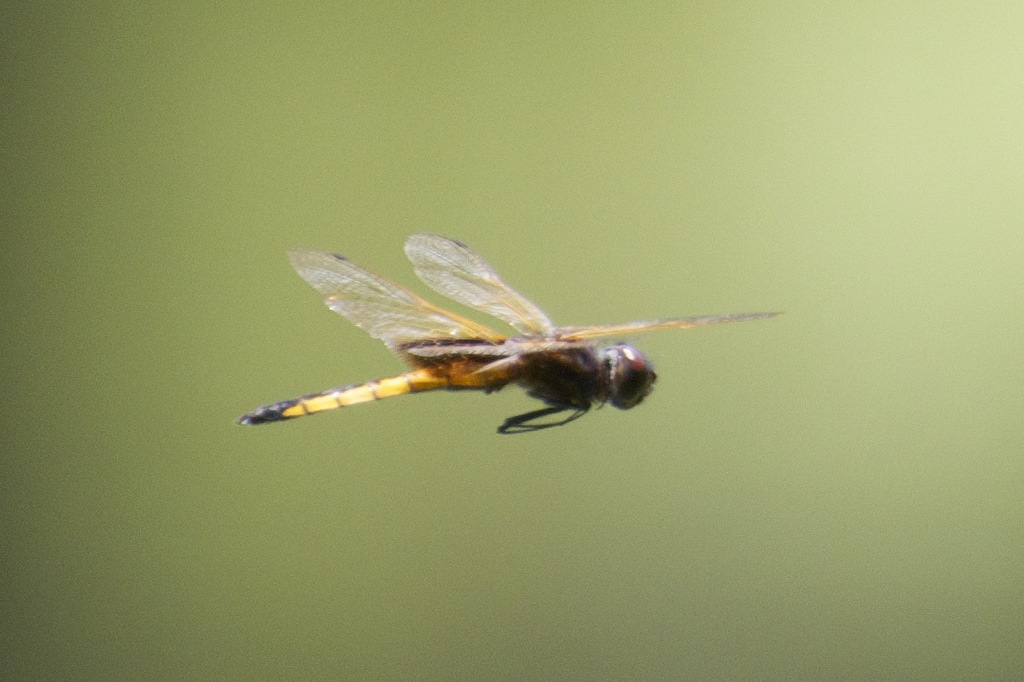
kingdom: Animalia
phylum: Arthropoda
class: Insecta
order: Odonata
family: Libellulidae
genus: Miathyria
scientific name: Miathyria marcella
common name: Hyacinth glider
